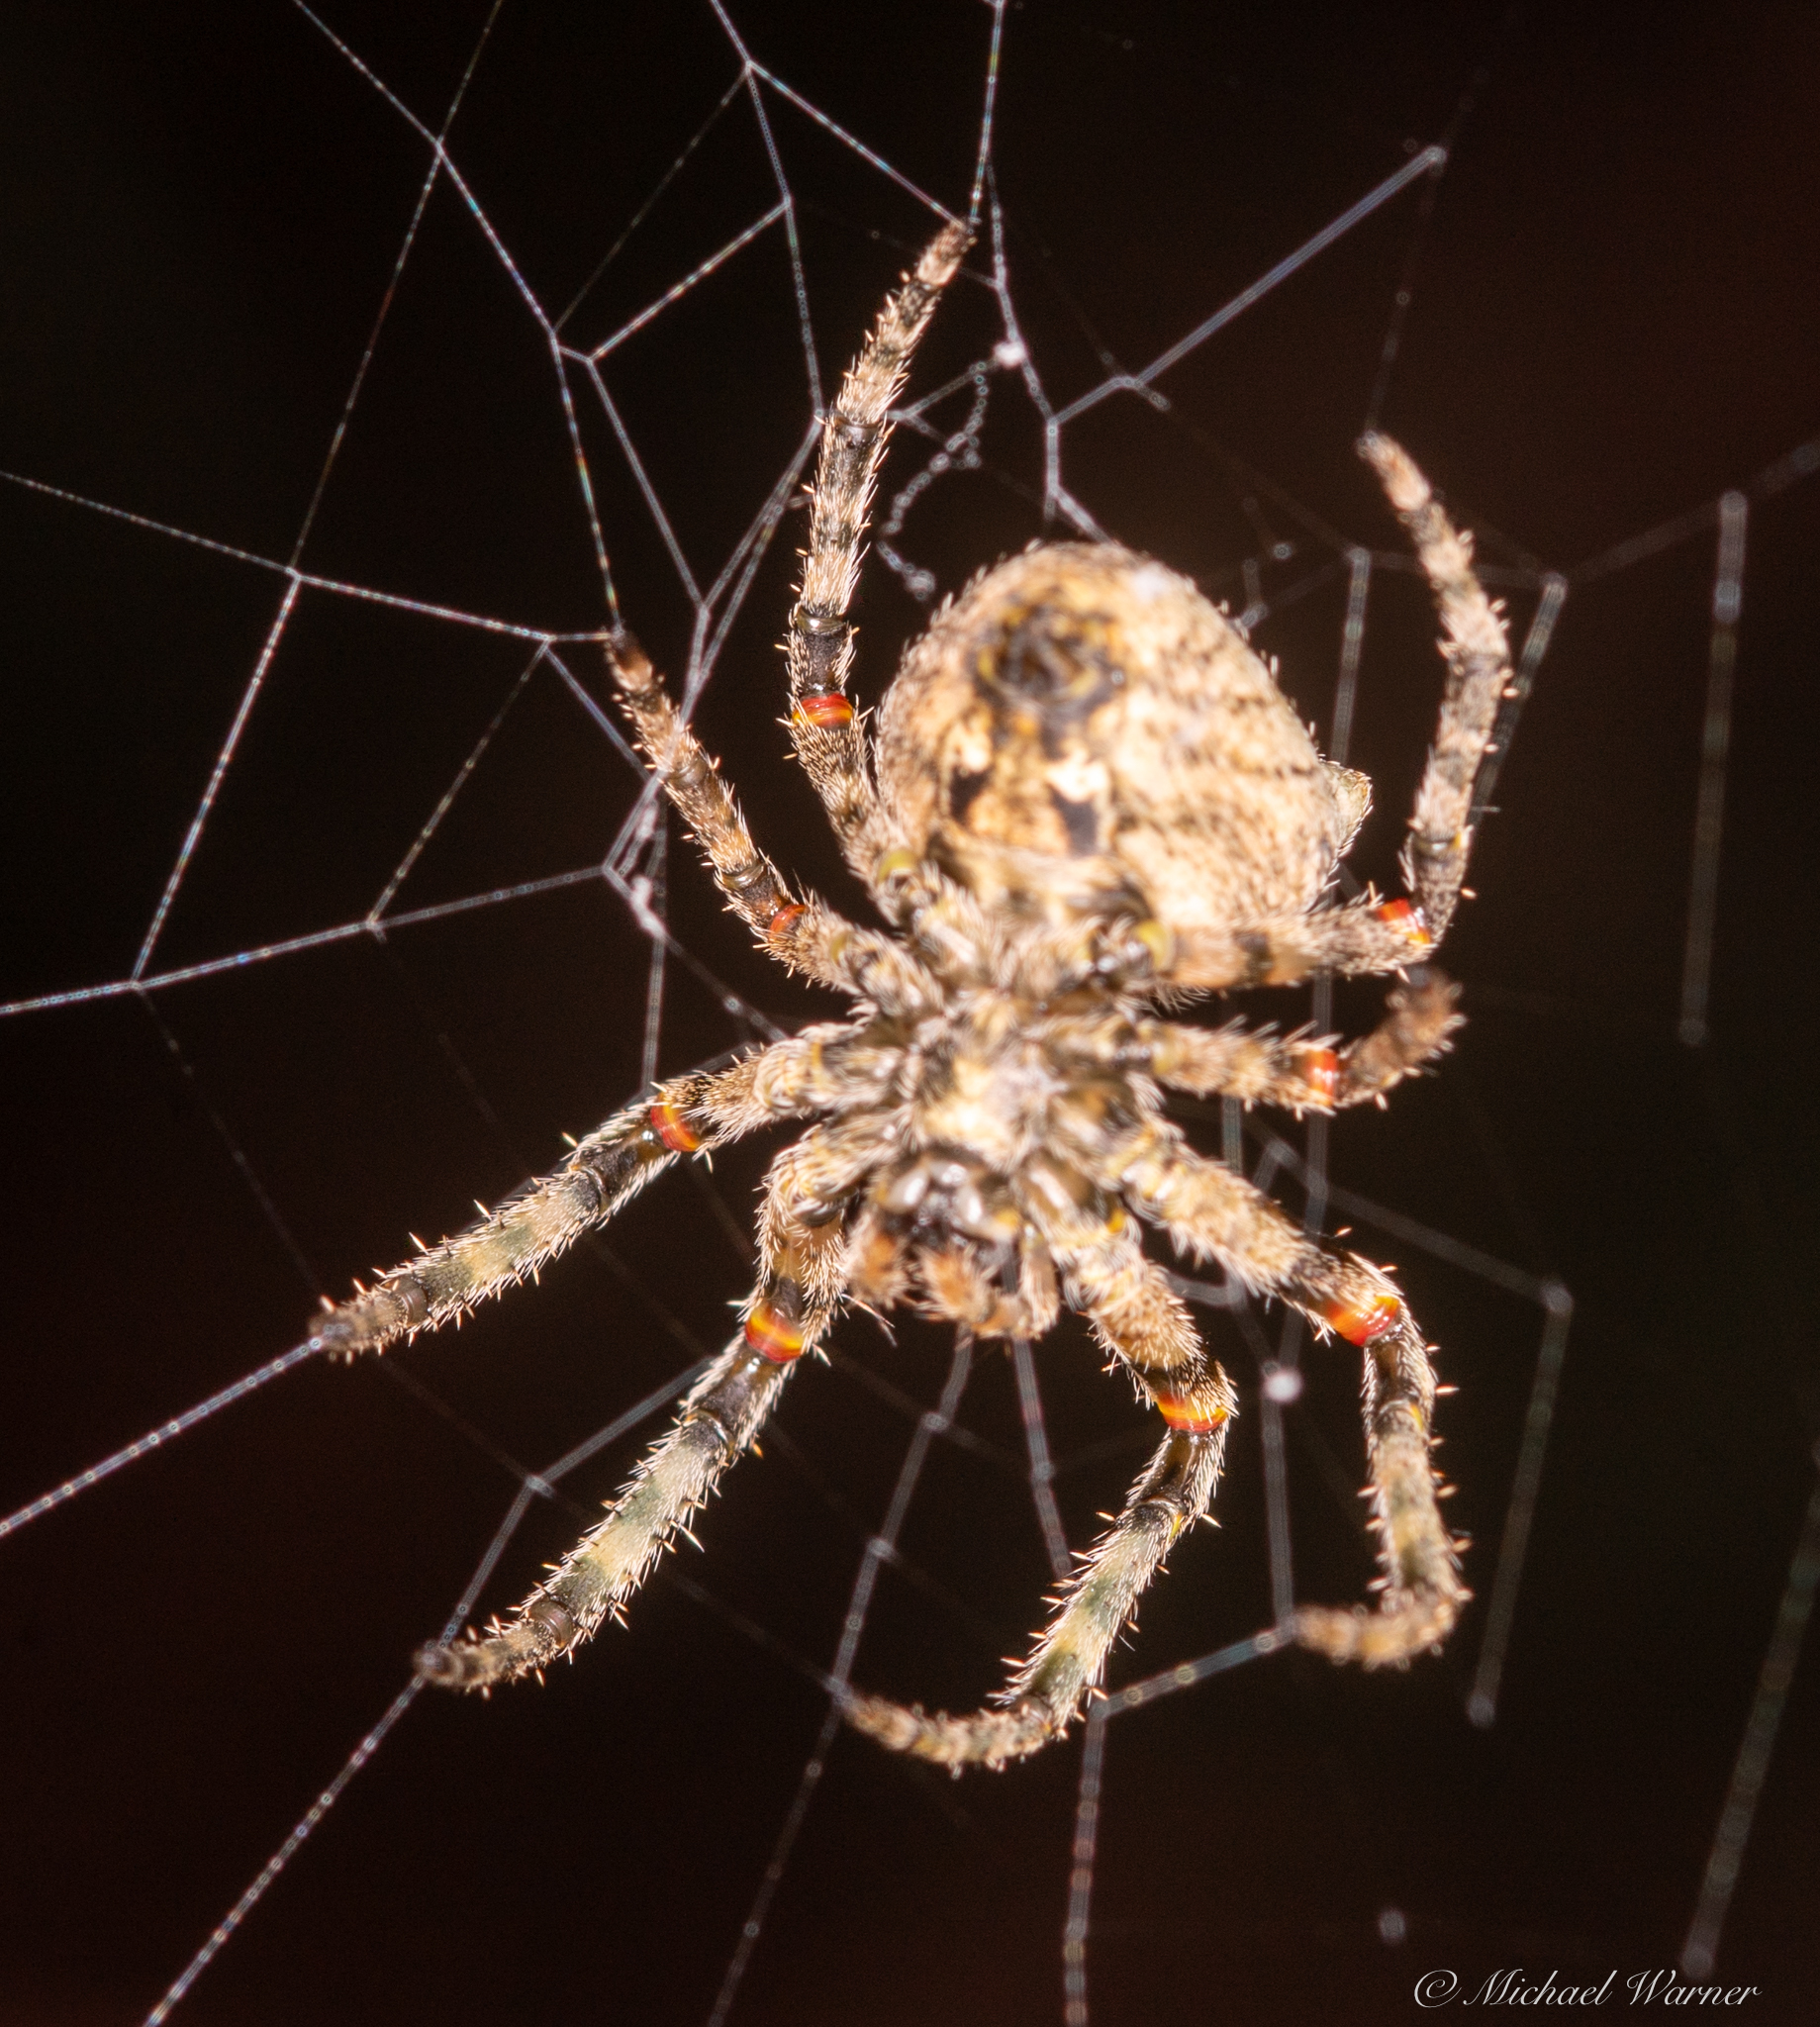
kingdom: Animalia
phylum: Arthropoda
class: Arachnida
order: Araneae
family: Araneidae
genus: Araneus
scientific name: Araneus andrewsi
